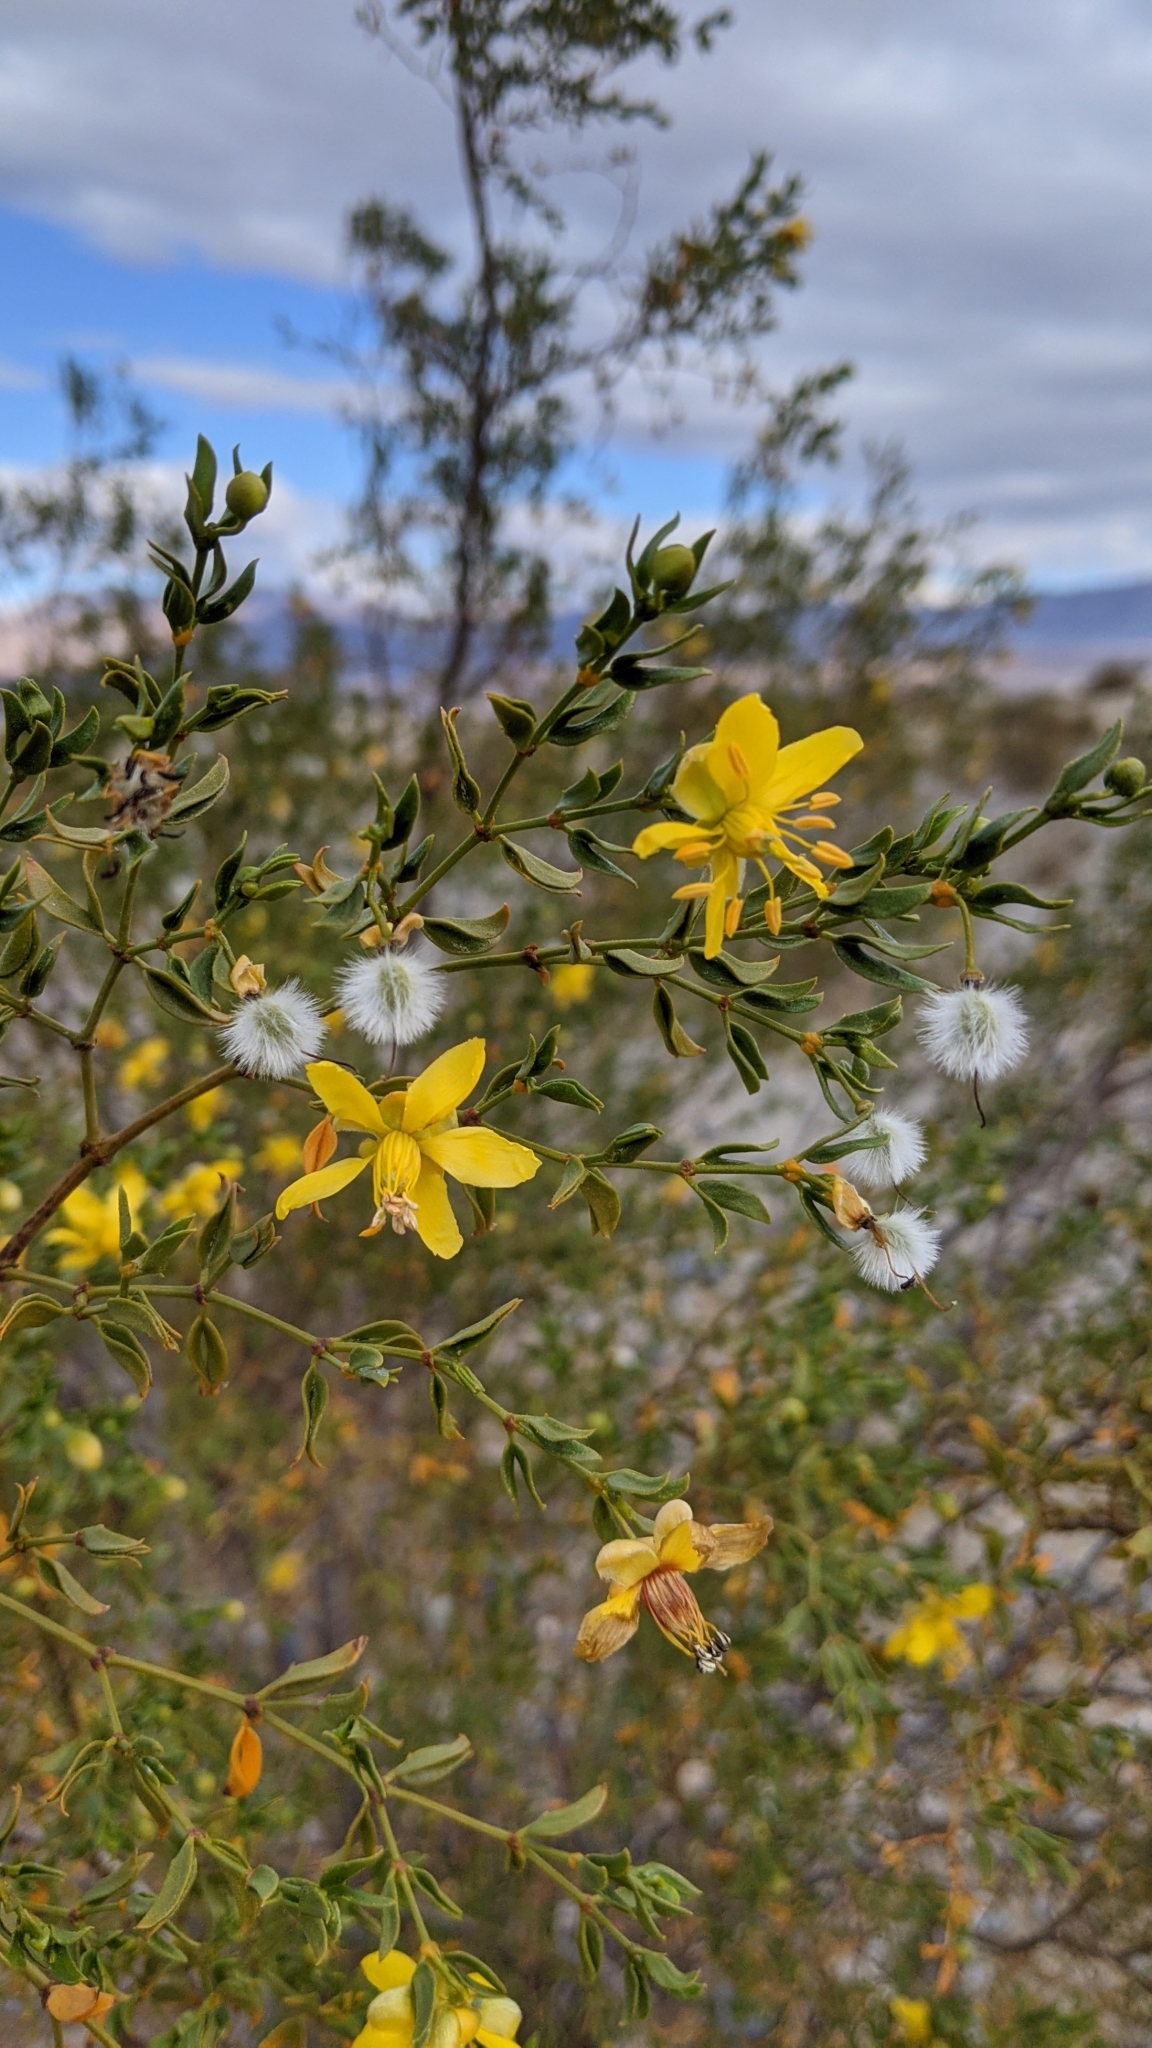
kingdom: Plantae
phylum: Tracheophyta
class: Magnoliopsida
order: Zygophyllales
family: Zygophyllaceae
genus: Larrea
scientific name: Larrea tridentata
